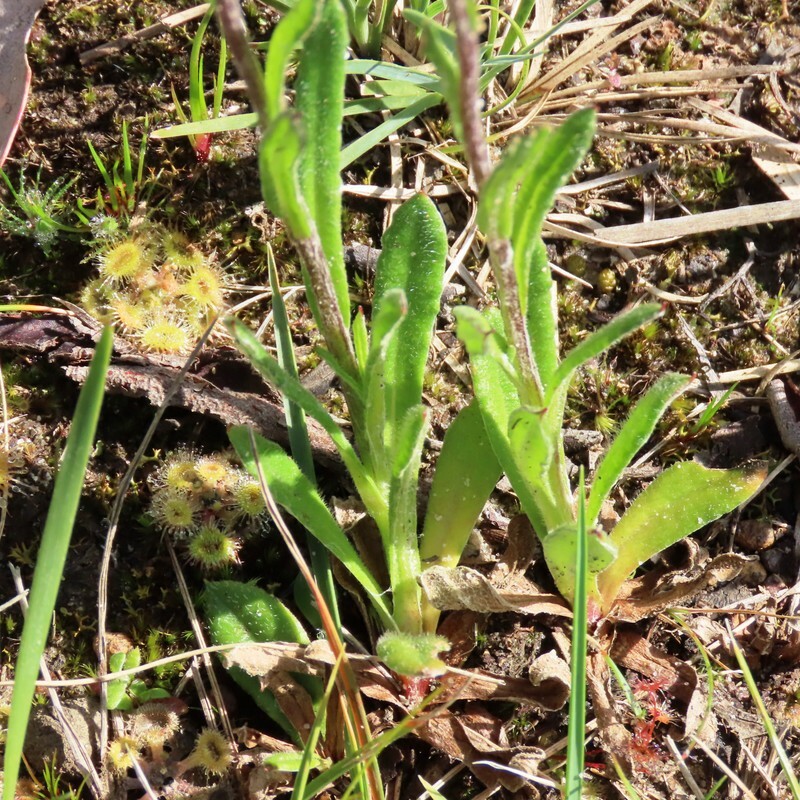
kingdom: Plantae
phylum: Tracheophyta
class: Magnoliopsida
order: Asterales
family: Asteraceae
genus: Coronidium
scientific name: Coronidium scorpioides
